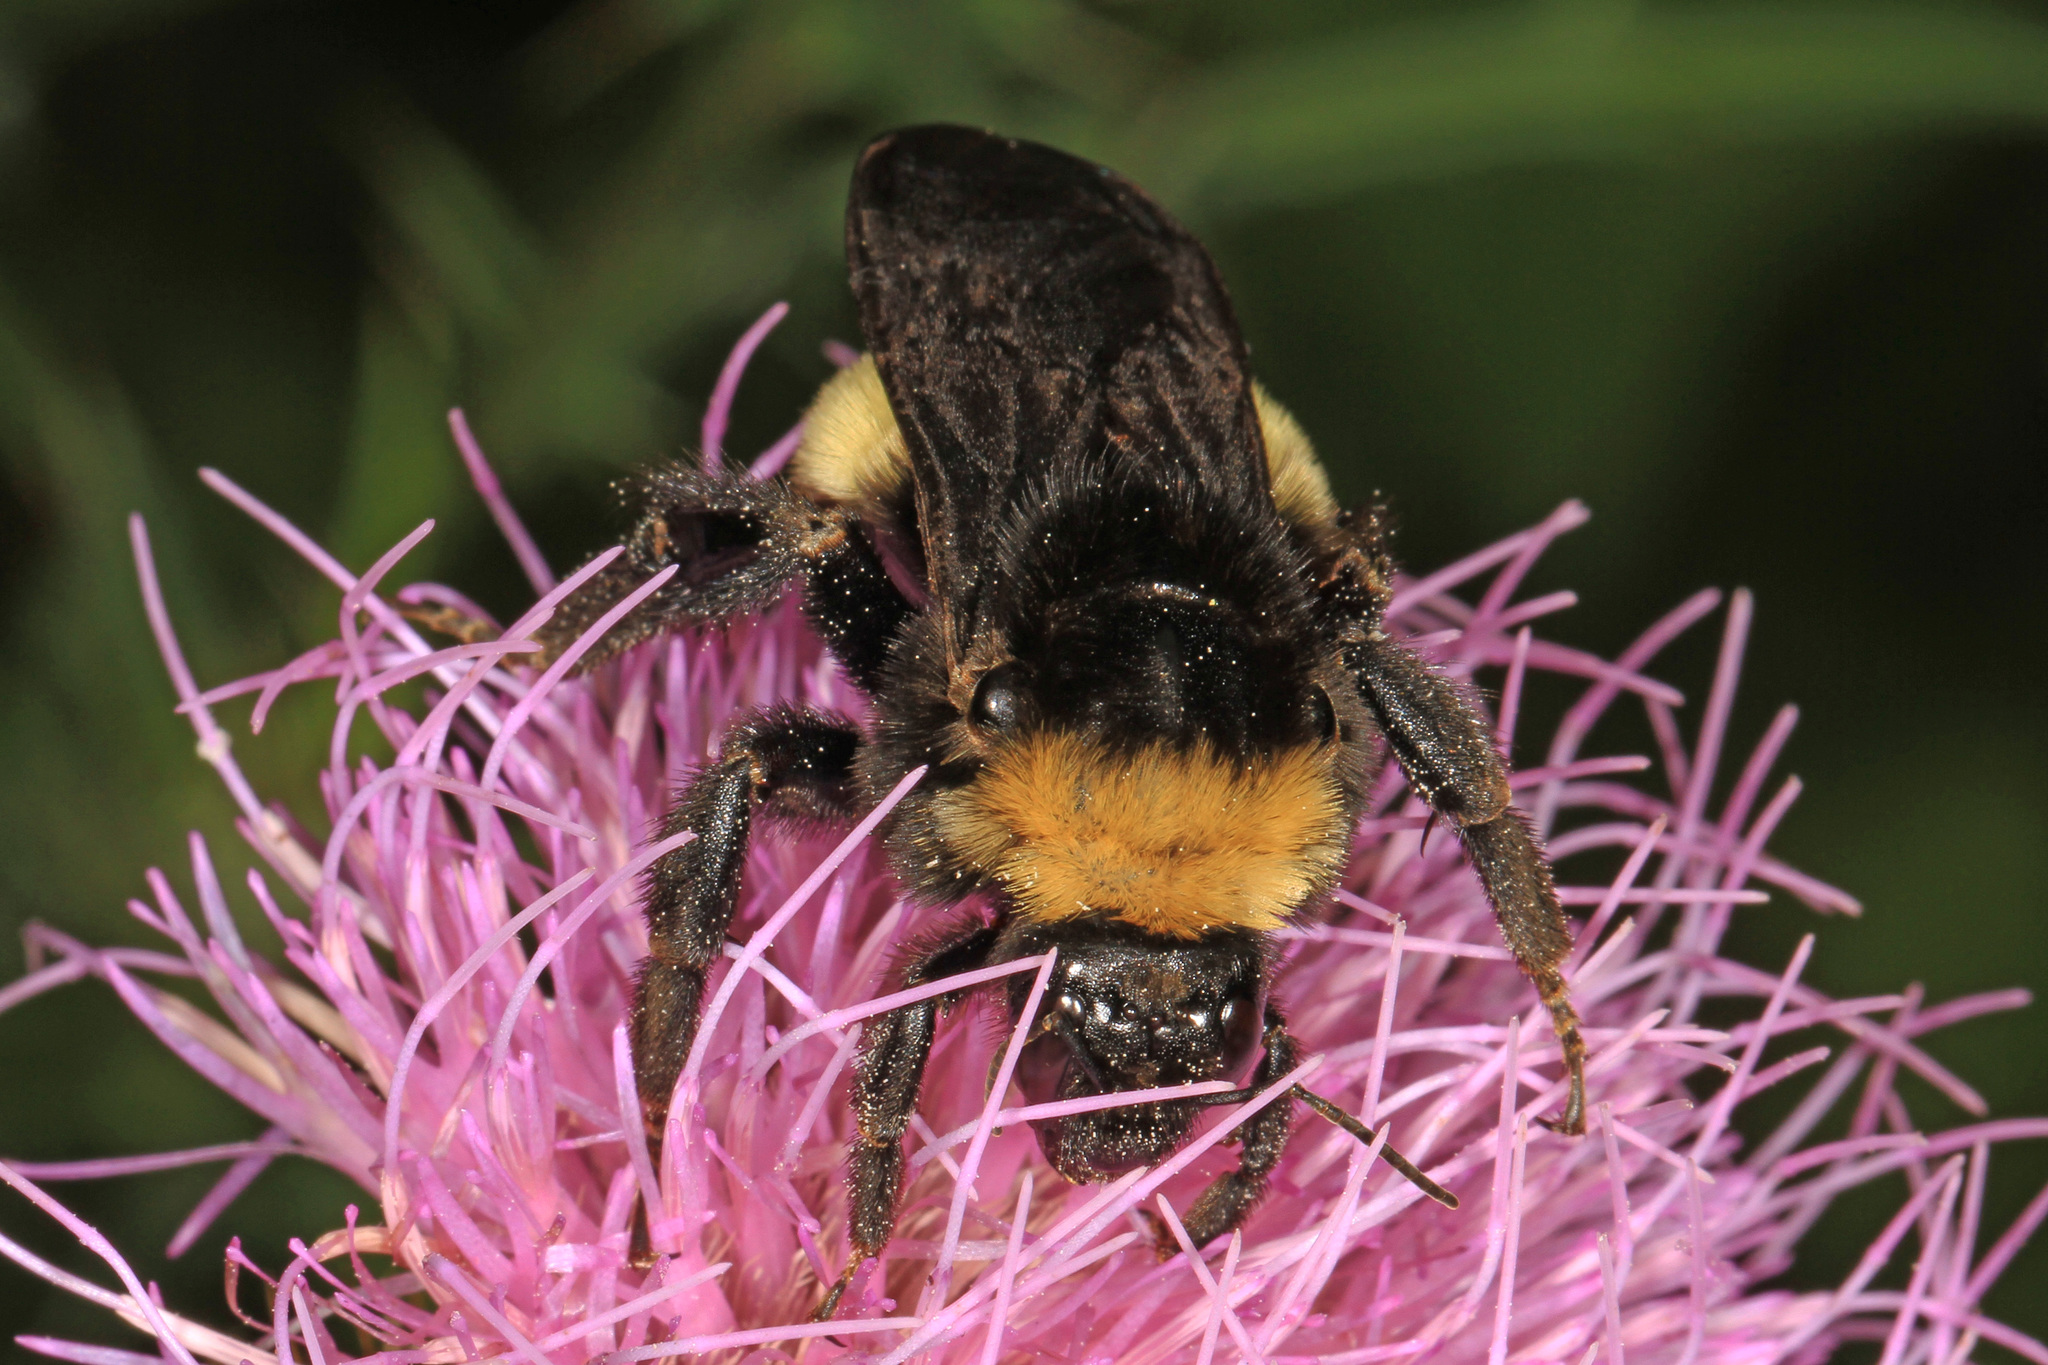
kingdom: Animalia
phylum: Arthropoda
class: Insecta
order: Hymenoptera
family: Apidae
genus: Bombus
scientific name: Bombus pensylvanicus
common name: Bumble bee
